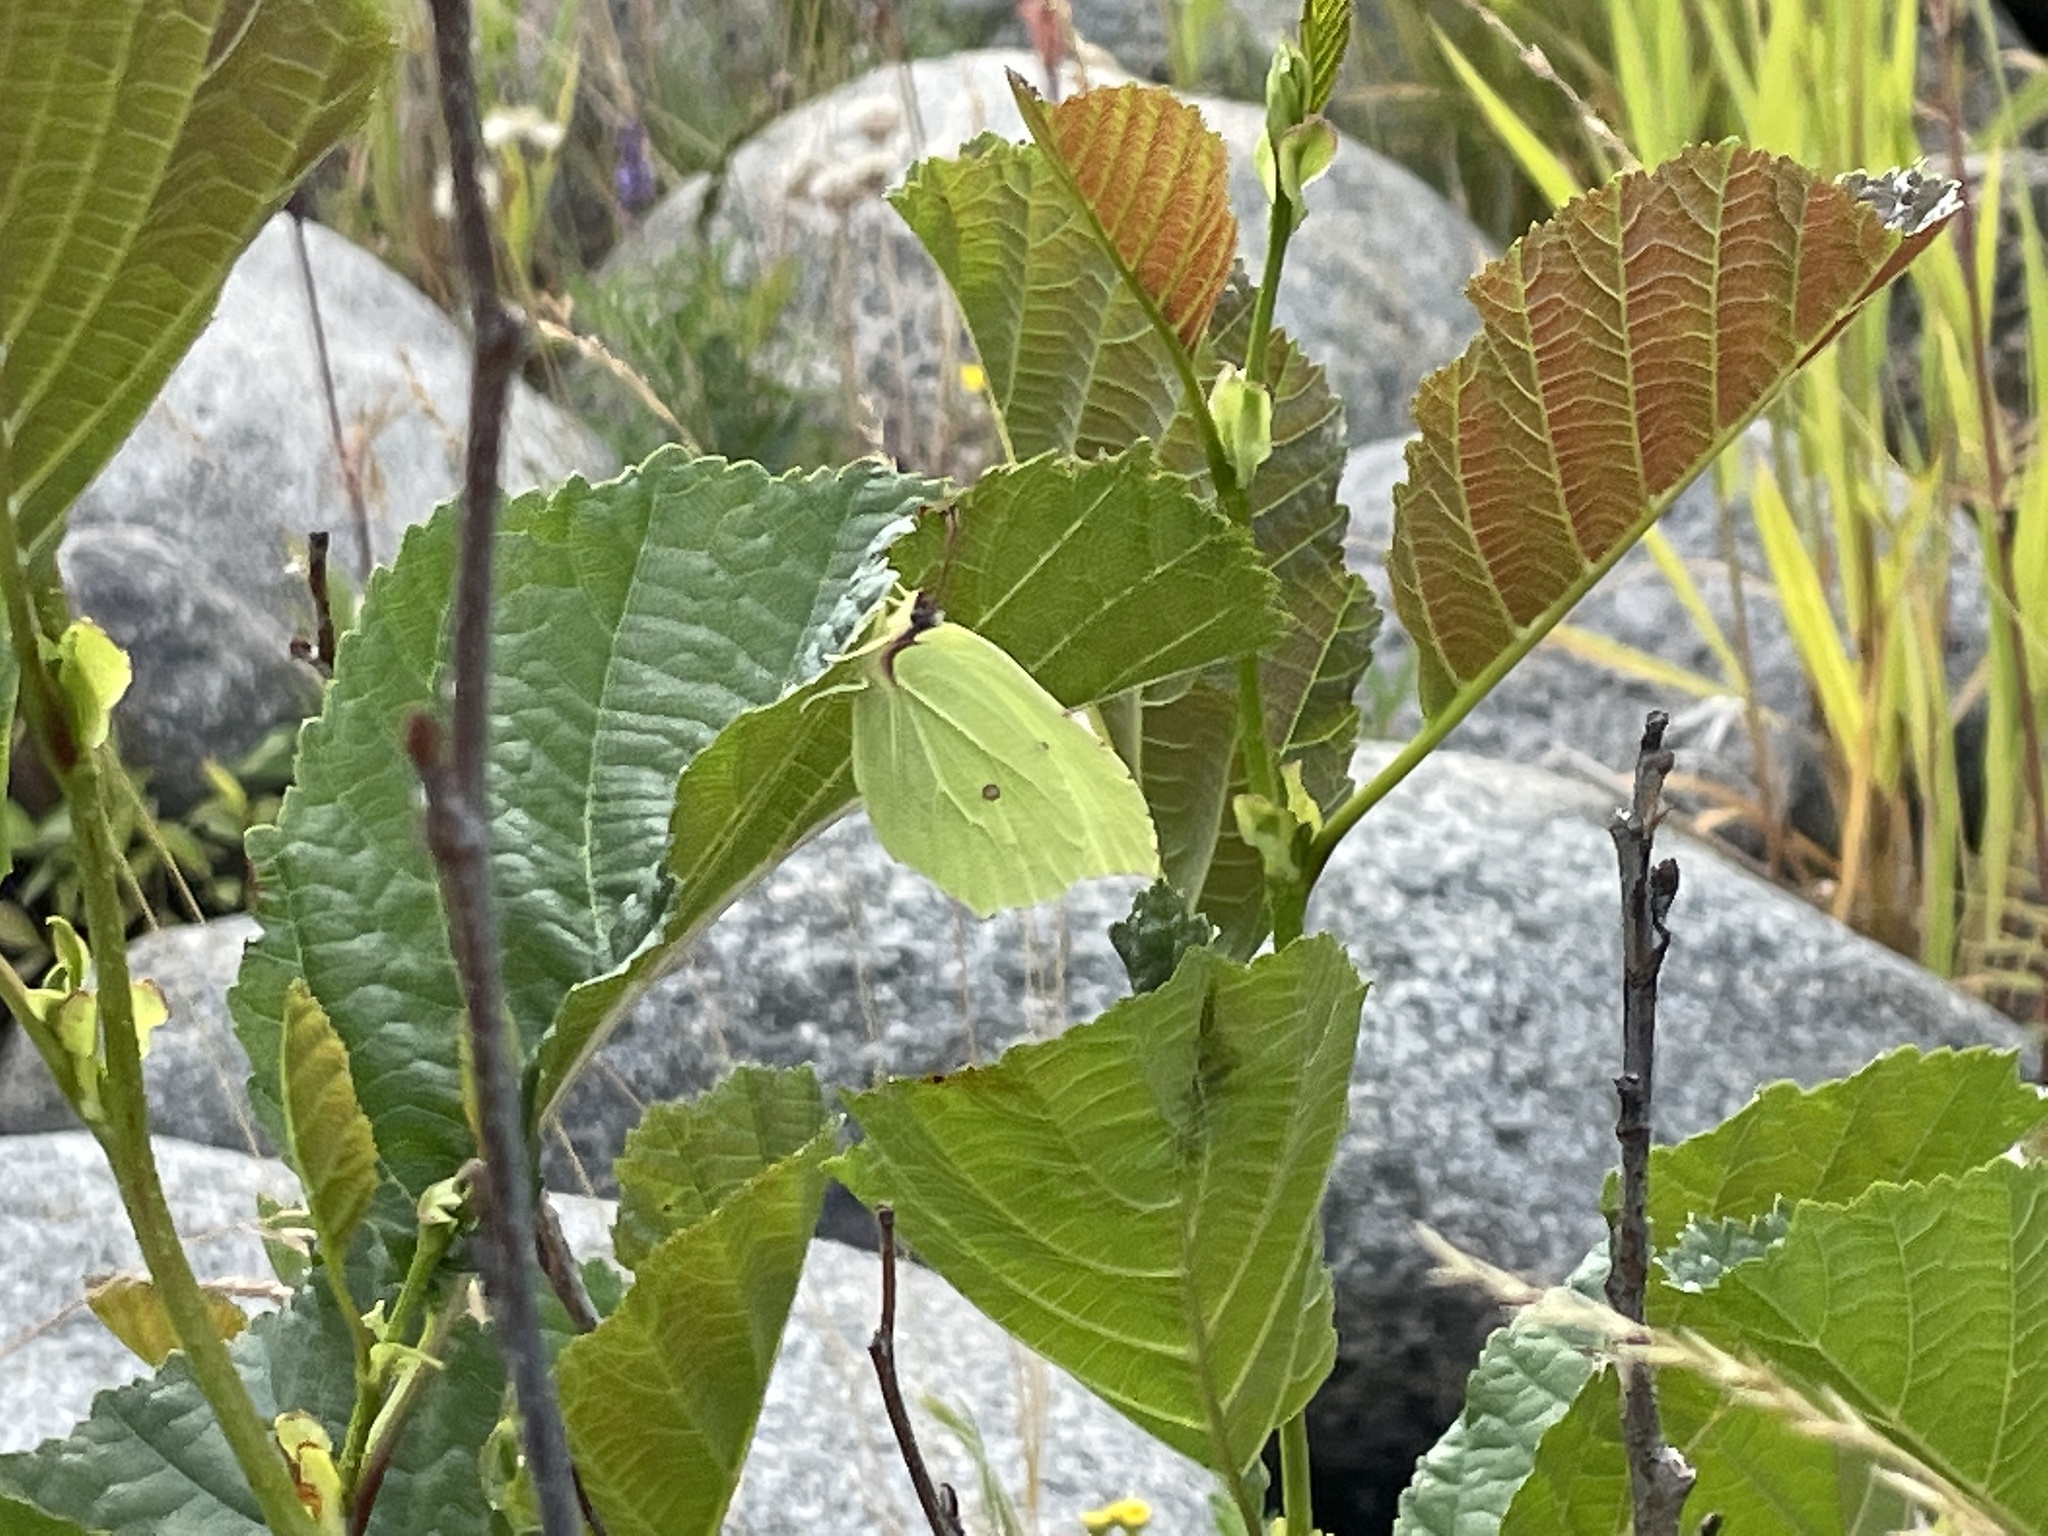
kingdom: Animalia
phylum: Arthropoda
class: Insecta
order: Lepidoptera
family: Pieridae
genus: Gonepteryx
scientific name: Gonepteryx rhamni
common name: Brimstone
